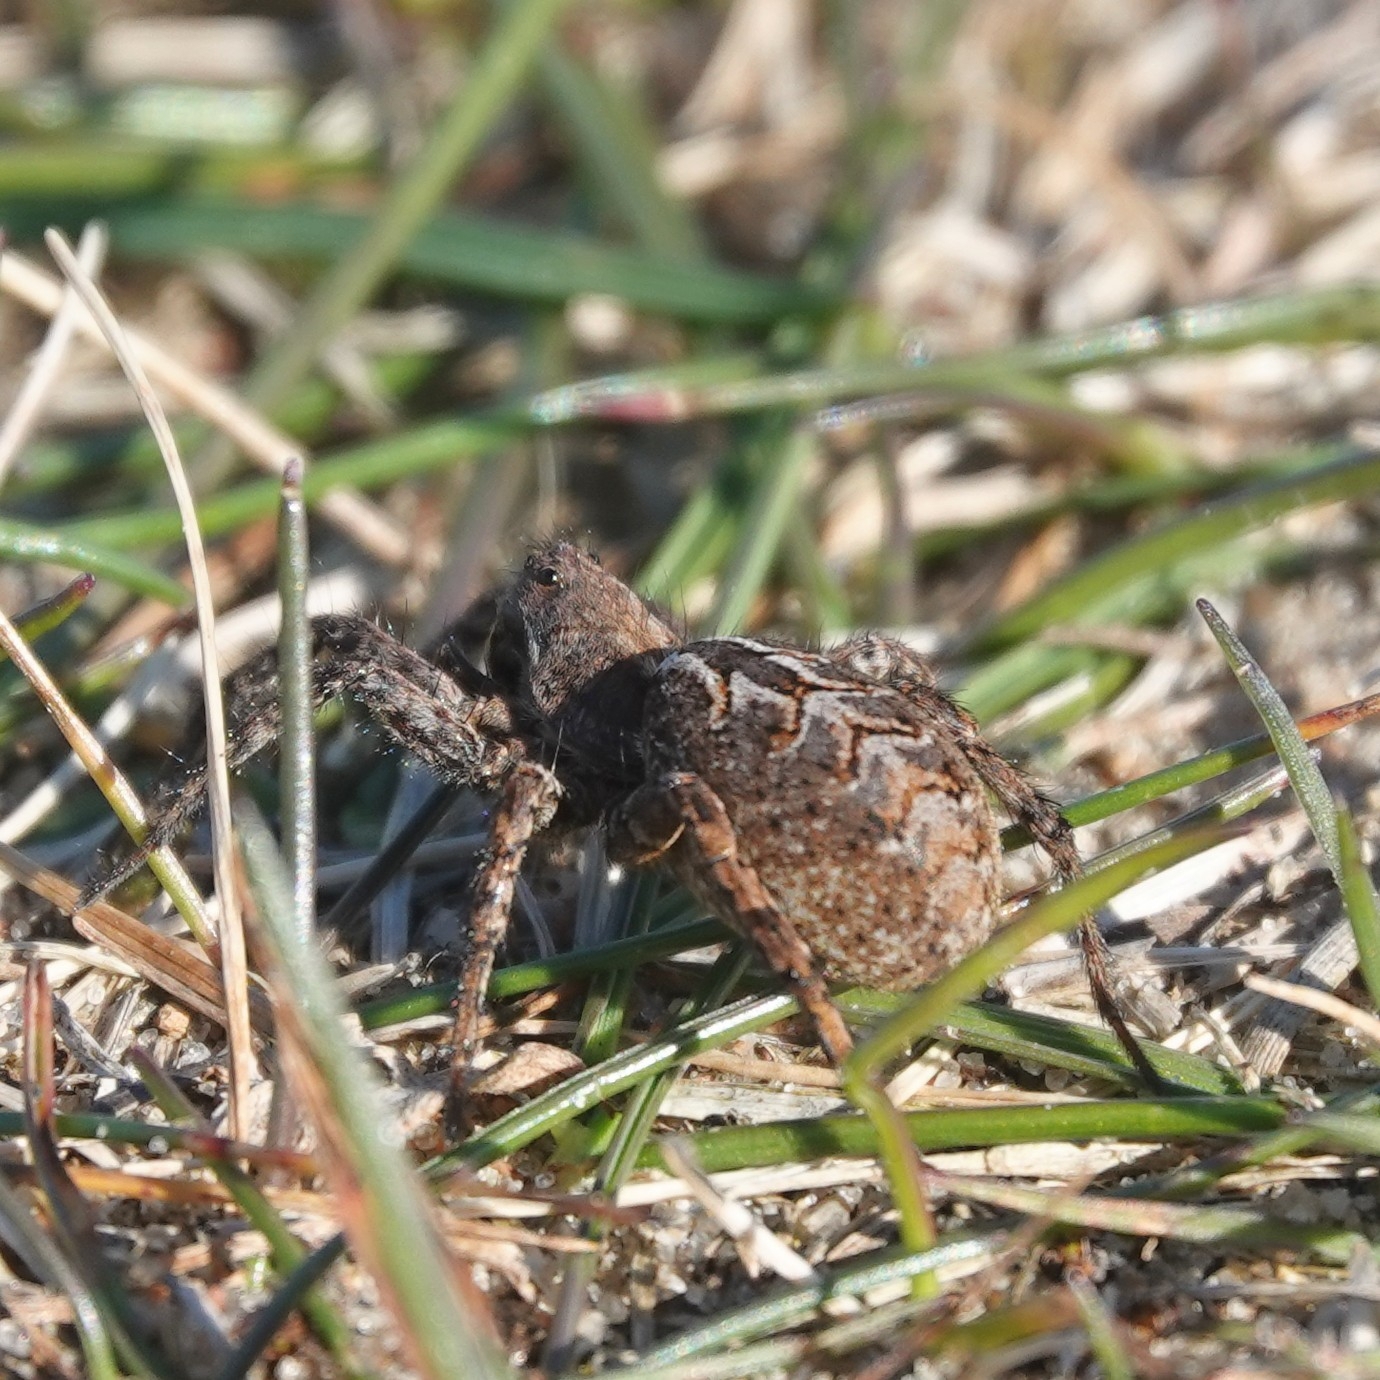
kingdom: Animalia
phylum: Arthropoda
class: Arachnida
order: Araneae
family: Lycosidae
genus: Alopecosa
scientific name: Alopecosa barbipes
